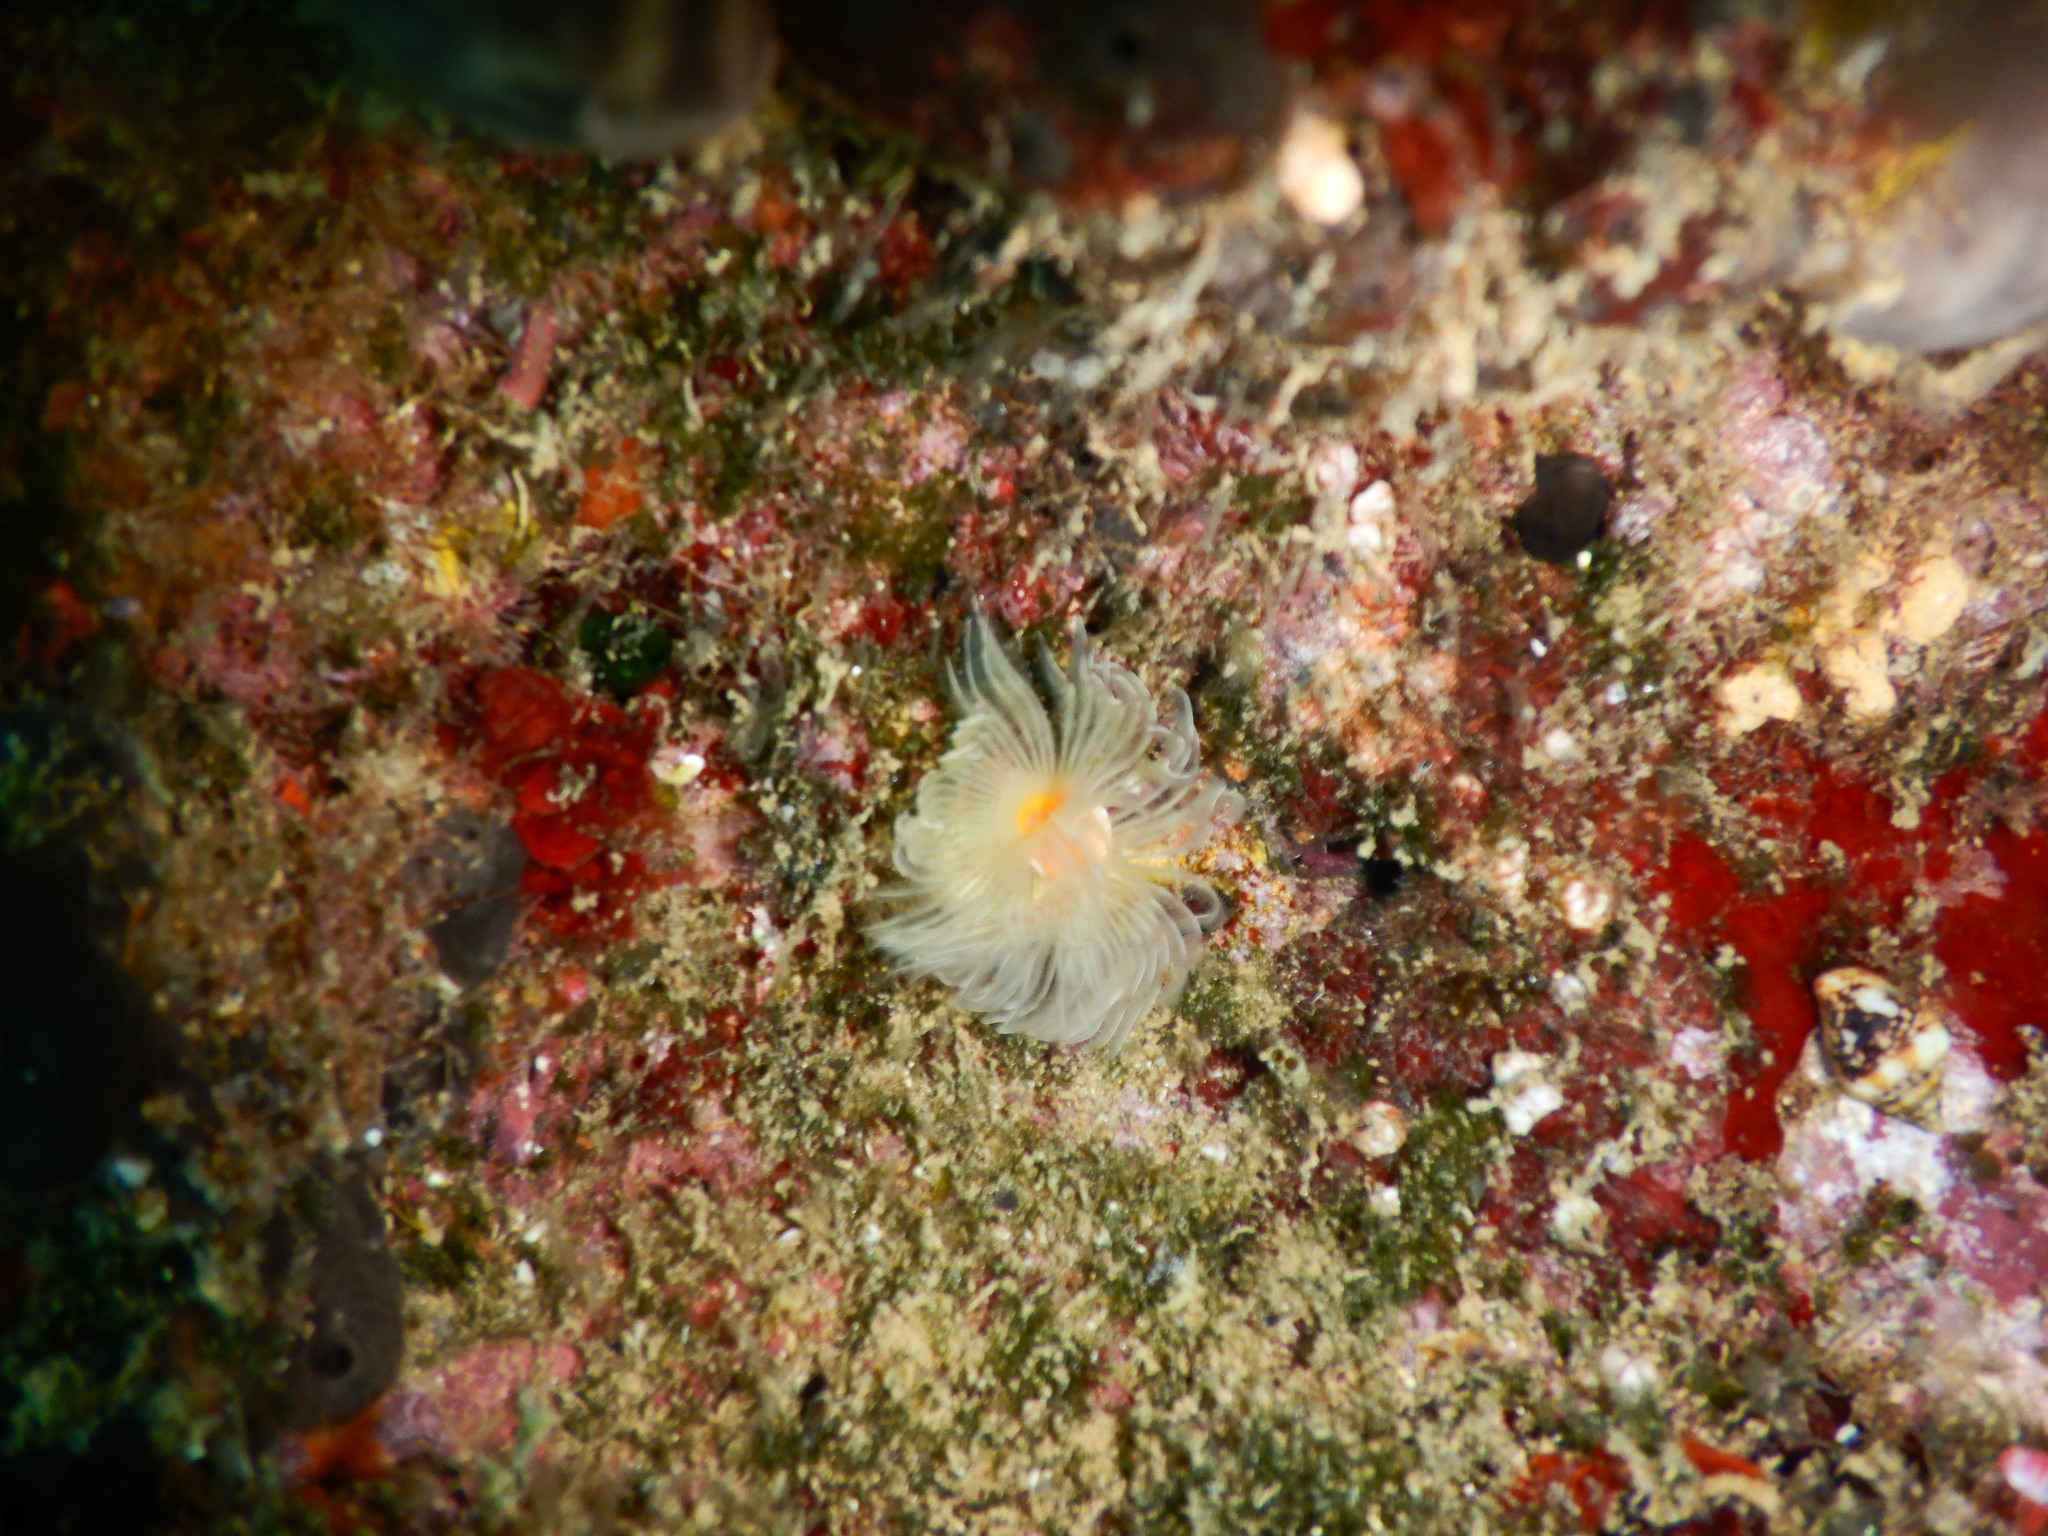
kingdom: Animalia
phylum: Annelida
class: Polychaeta
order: Sabellida
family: Serpulidae
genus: Protula
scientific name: Protula tubularia
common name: Red-spotted horseshoe
